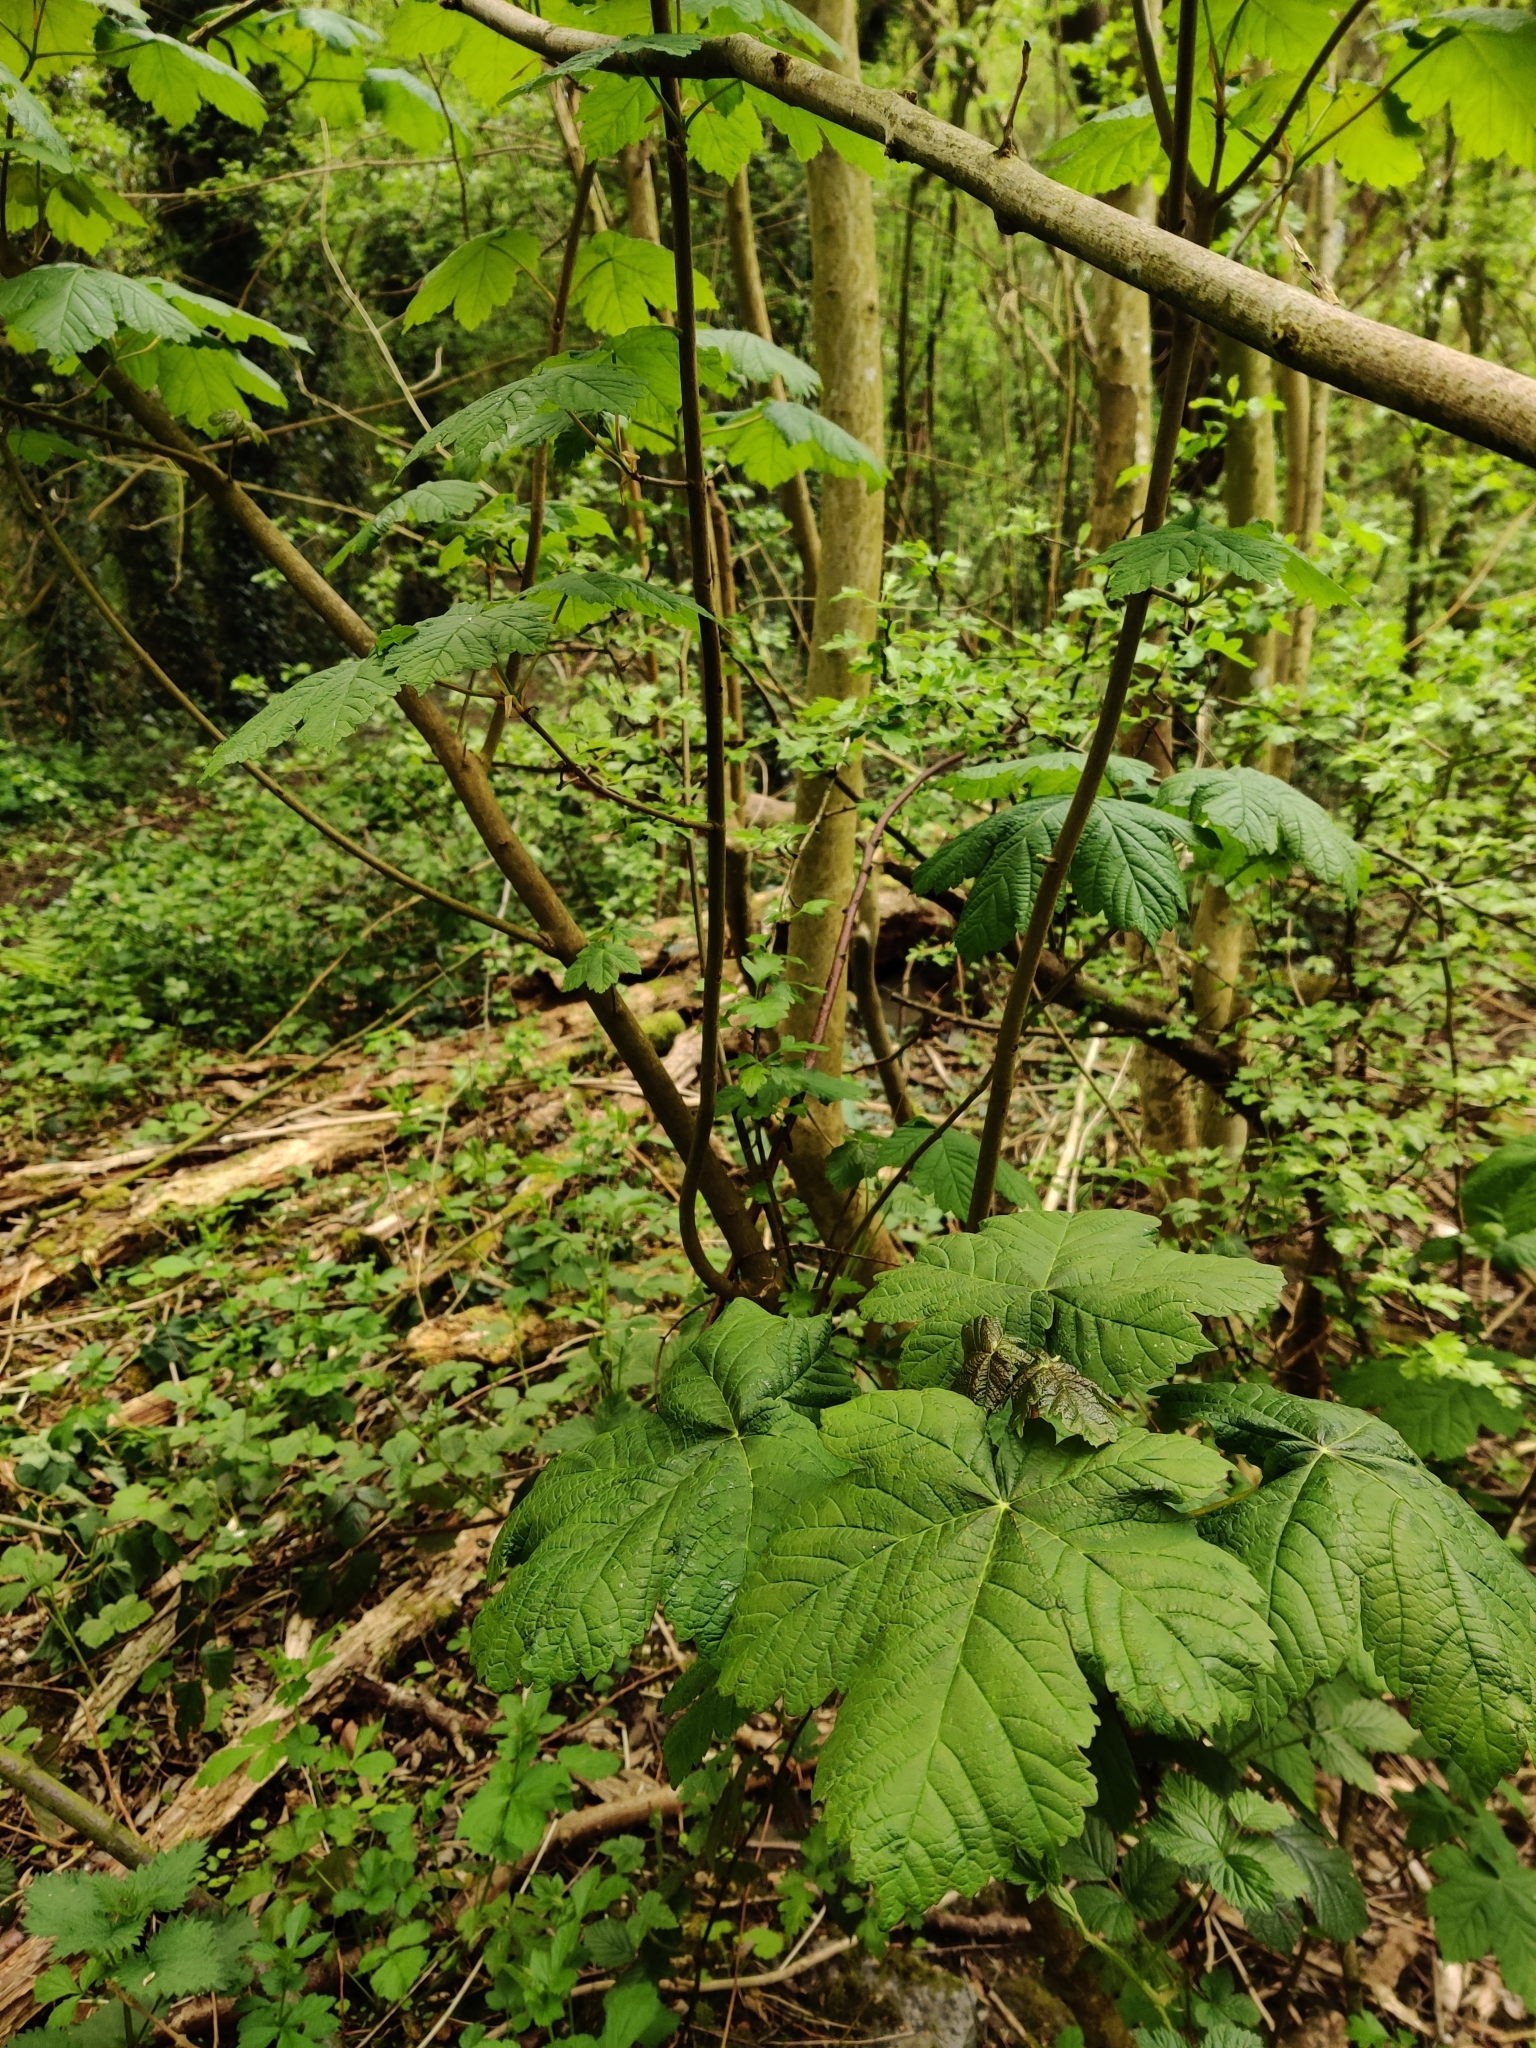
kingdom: Plantae
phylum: Tracheophyta
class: Magnoliopsida
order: Sapindales
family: Sapindaceae
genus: Acer
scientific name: Acer pseudoplatanus
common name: Sycamore
